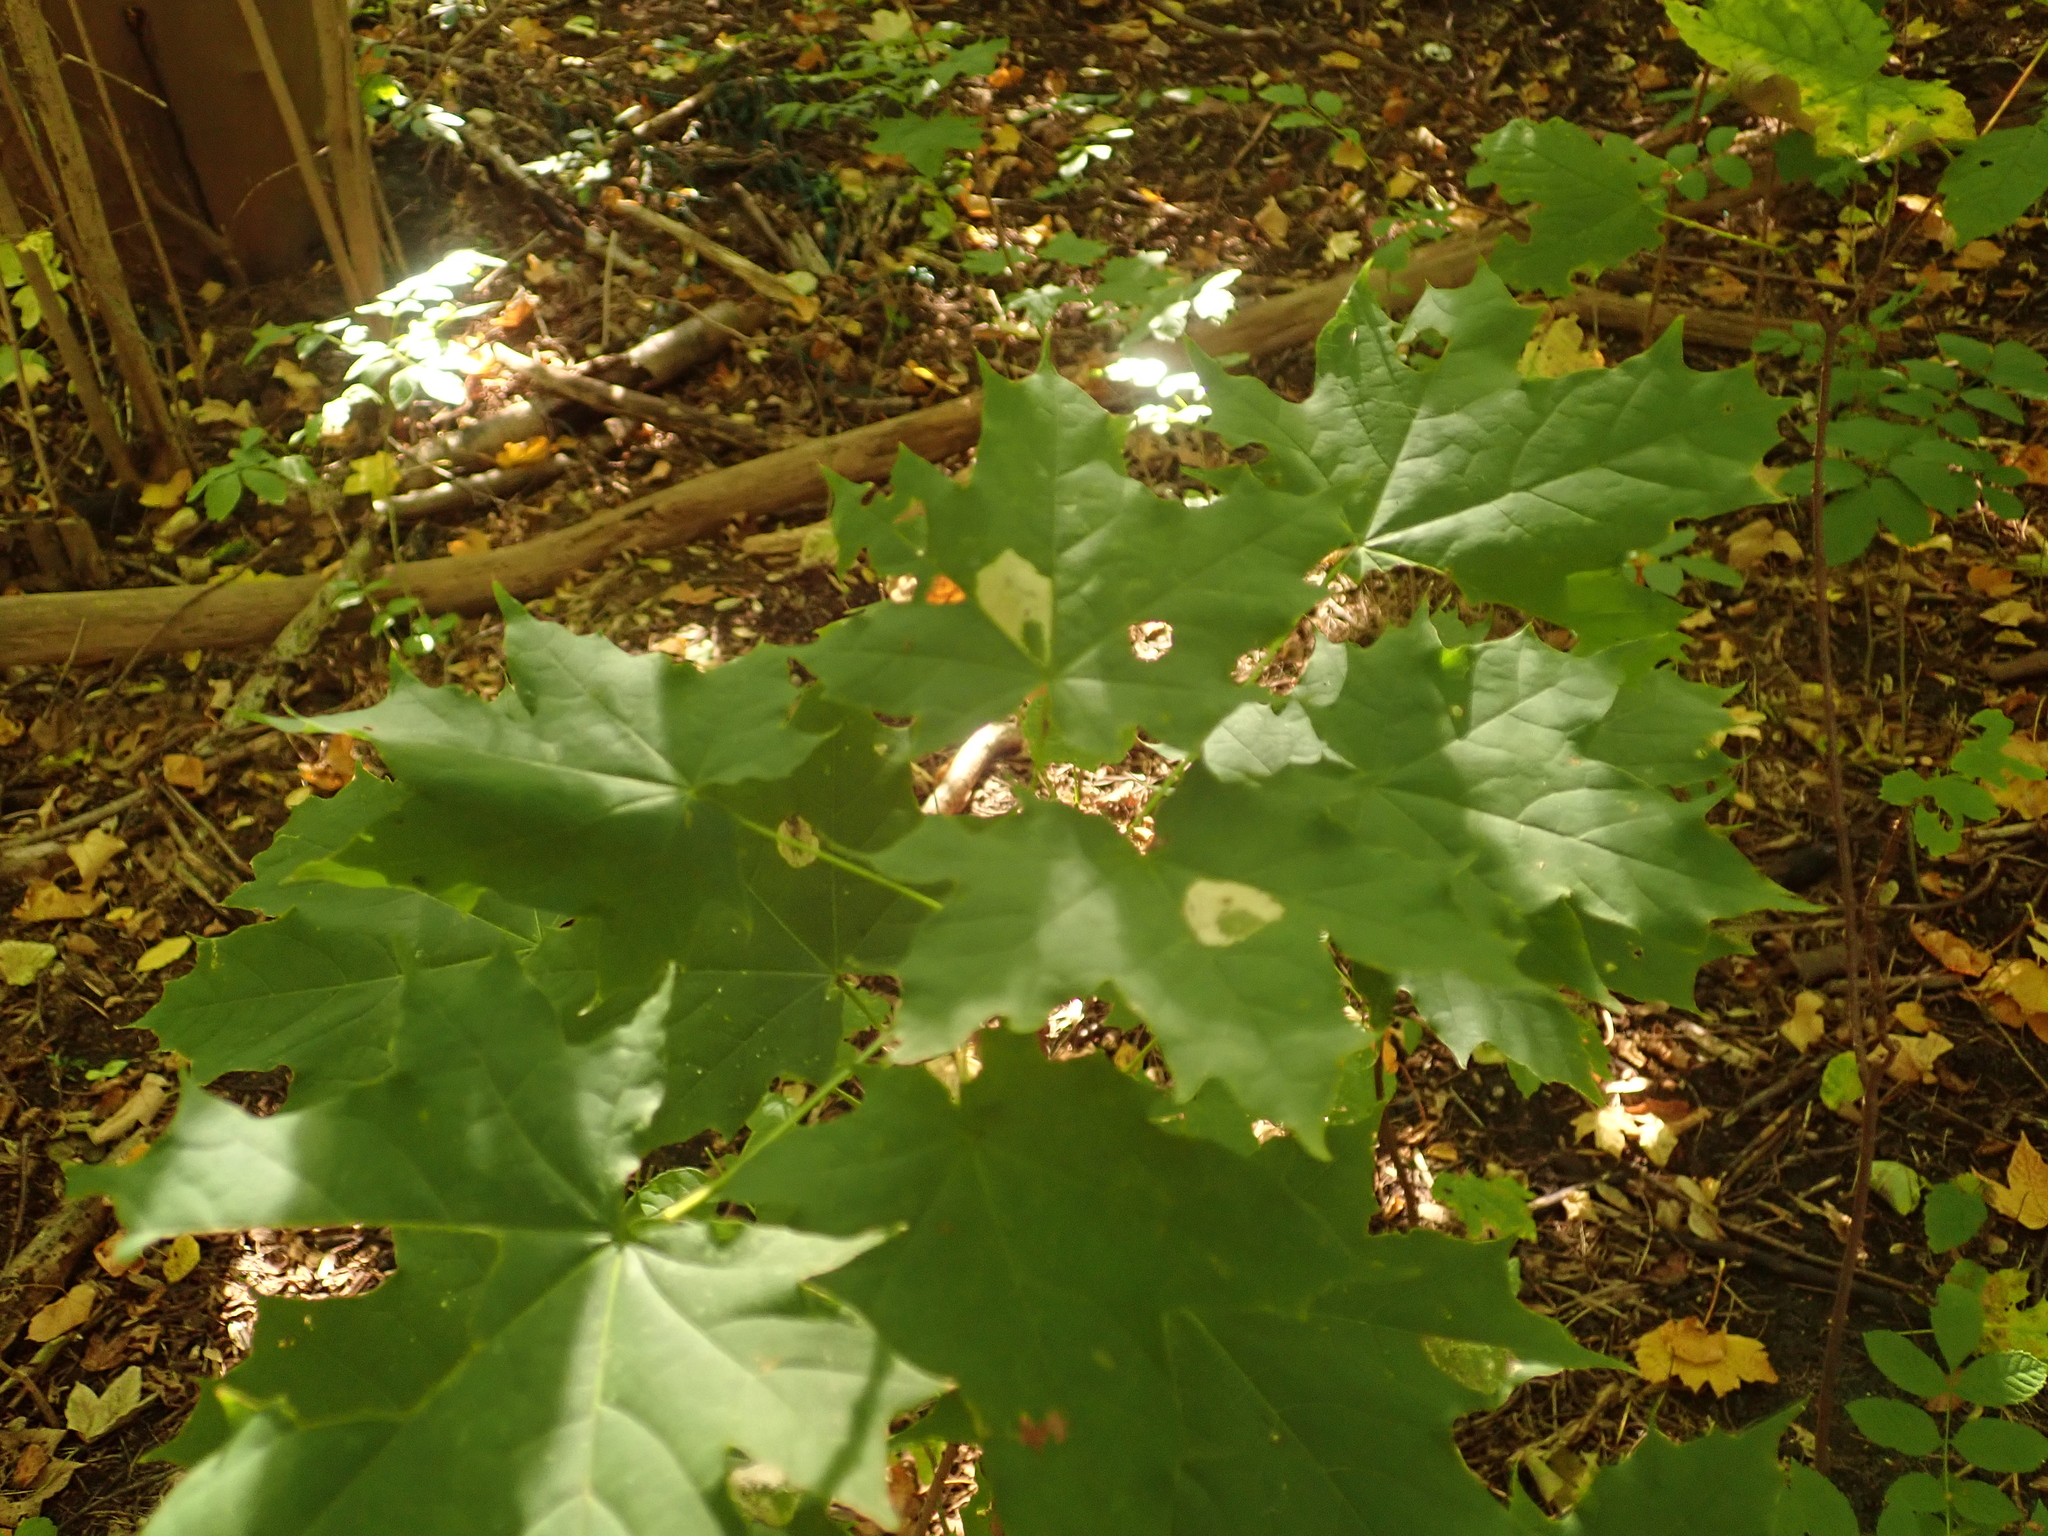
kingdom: Plantae
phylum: Tracheophyta
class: Magnoliopsida
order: Sapindales
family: Sapindaceae
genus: Acer
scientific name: Acer platanoides
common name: Norway maple
